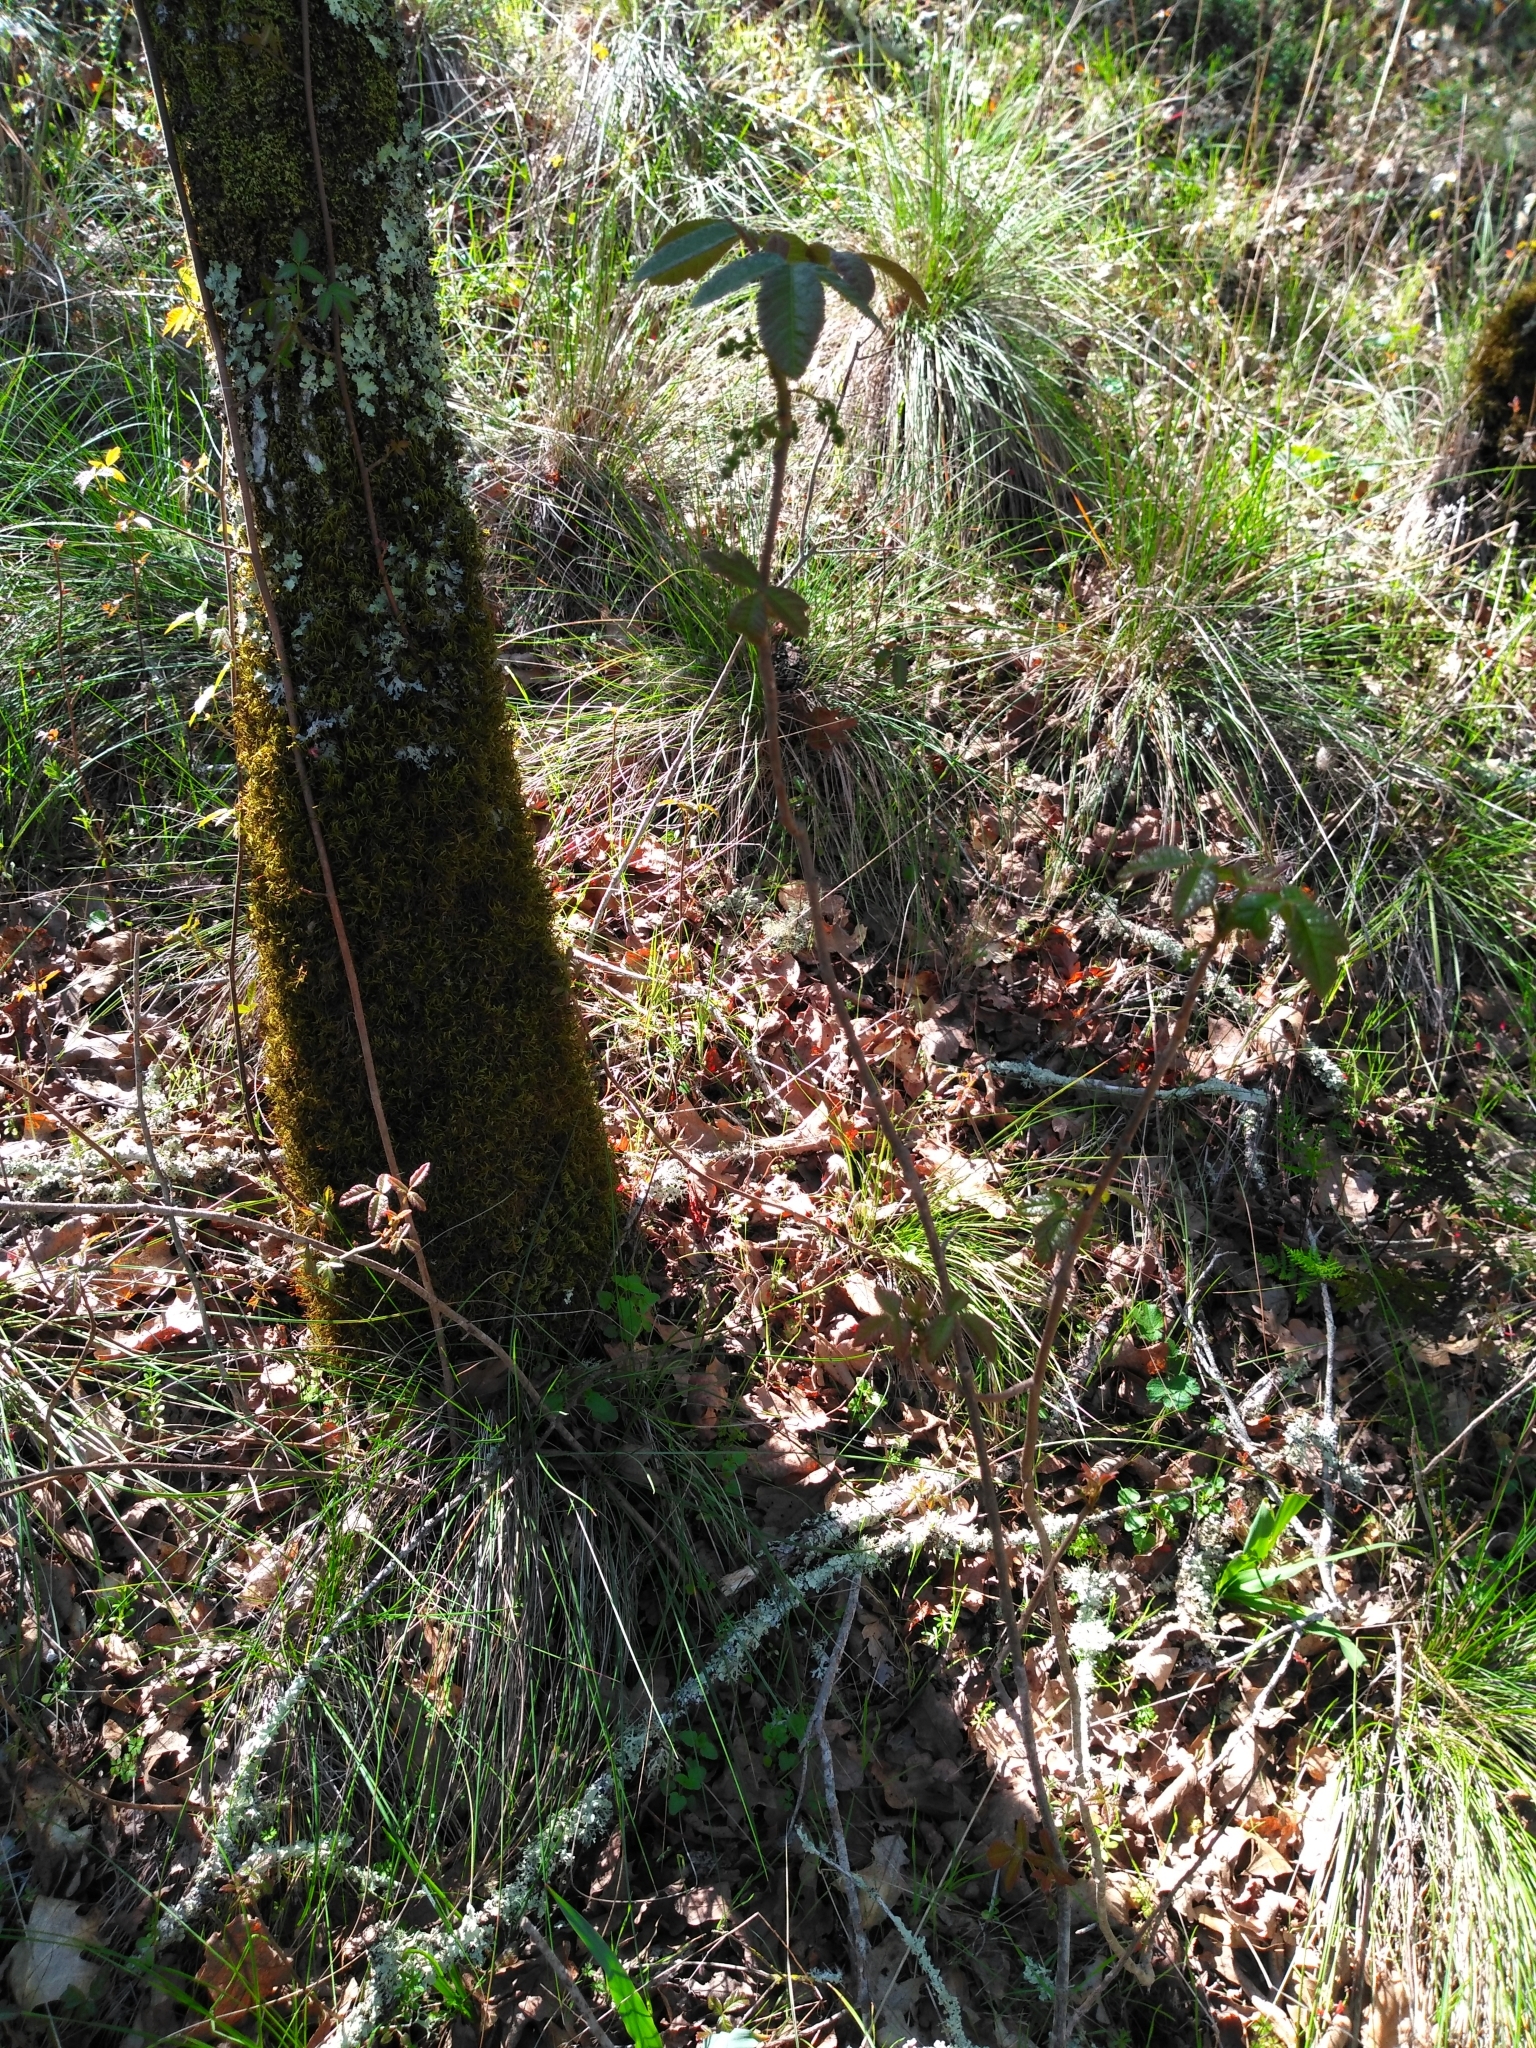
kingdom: Plantae
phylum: Tracheophyta
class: Magnoliopsida
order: Sapindales
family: Anacardiaceae
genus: Toxicodendron
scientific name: Toxicodendron diversilobum
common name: Pacific poison-oak
